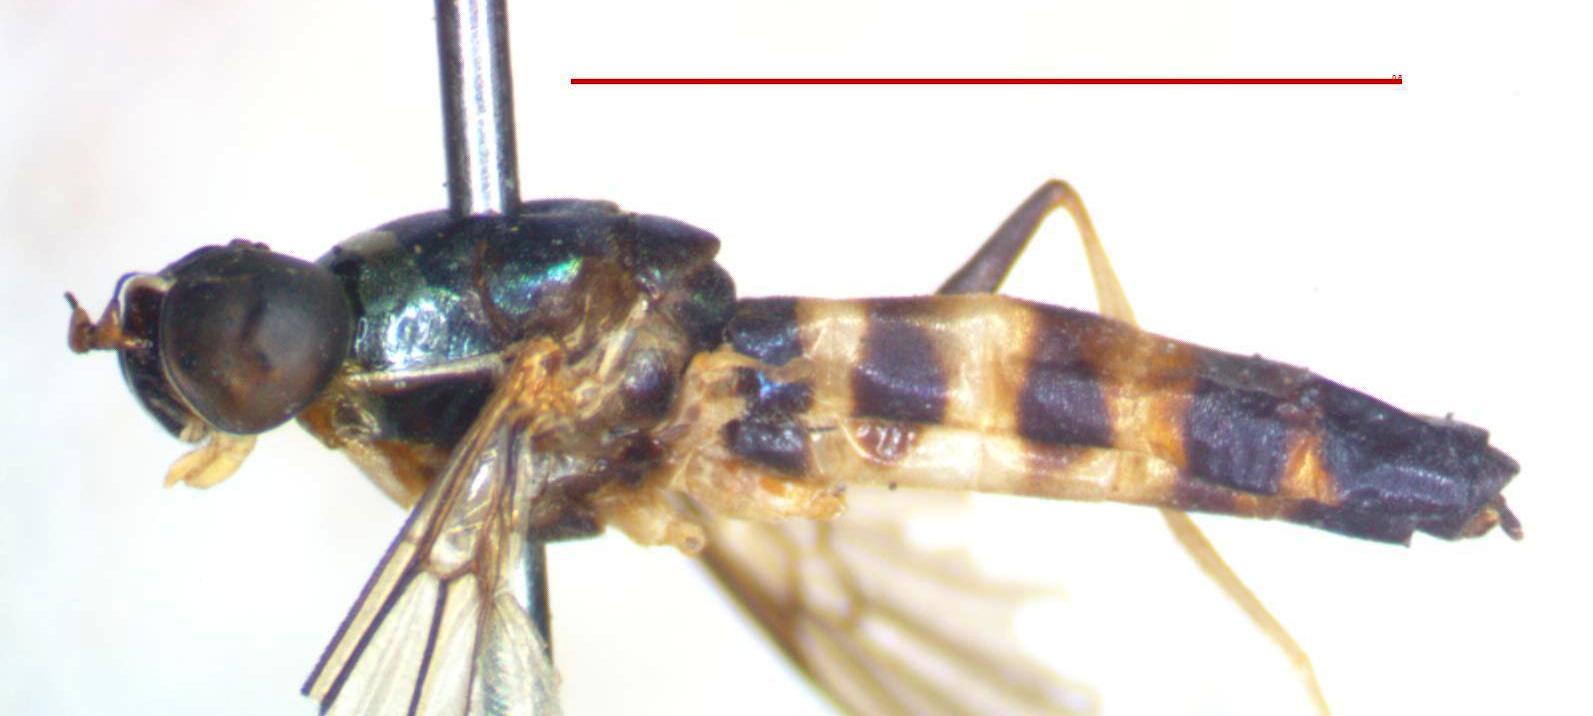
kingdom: Animalia
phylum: Arthropoda
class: Insecta
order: Diptera
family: Stratiomyidae
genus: Merosargus
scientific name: Merosargus cingulatus
